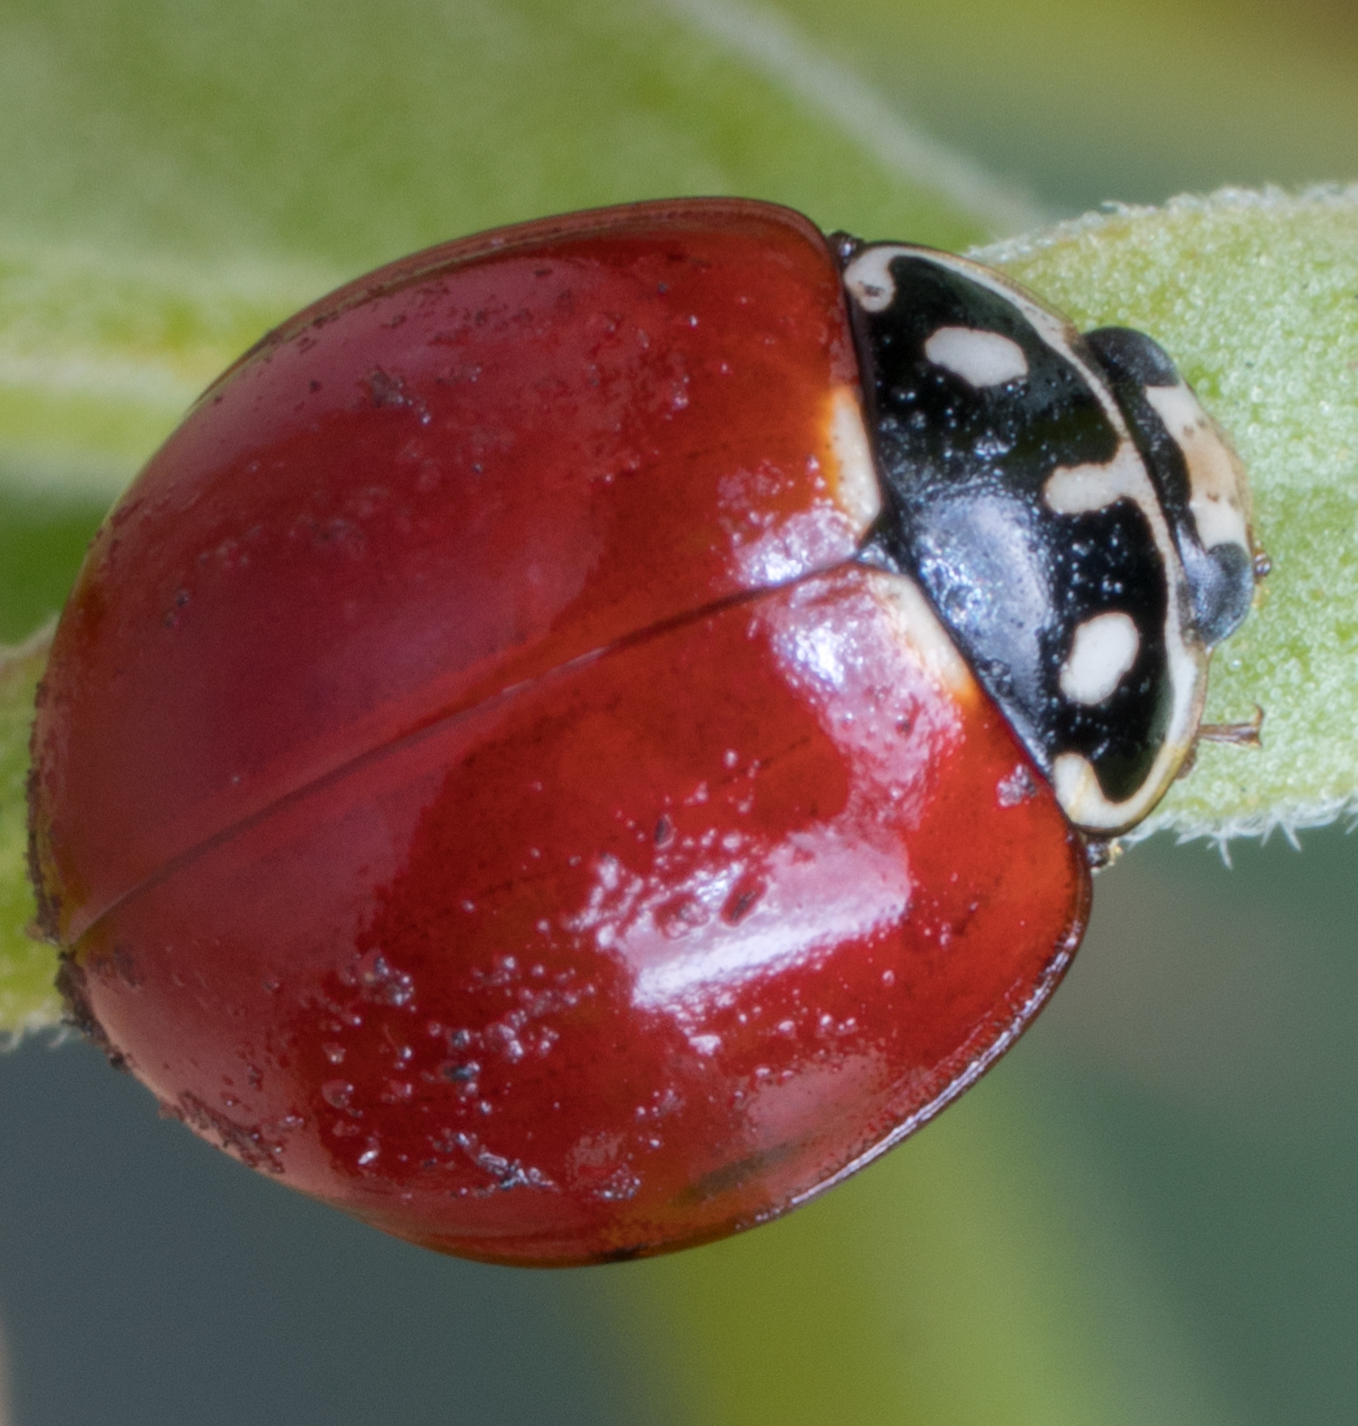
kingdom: Animalia
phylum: Arthropoda
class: Insecta
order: Coleoptera
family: Coccinellidae
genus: Cycloneda
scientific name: Cycloneda sanguinea
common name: Ladybird beetle
